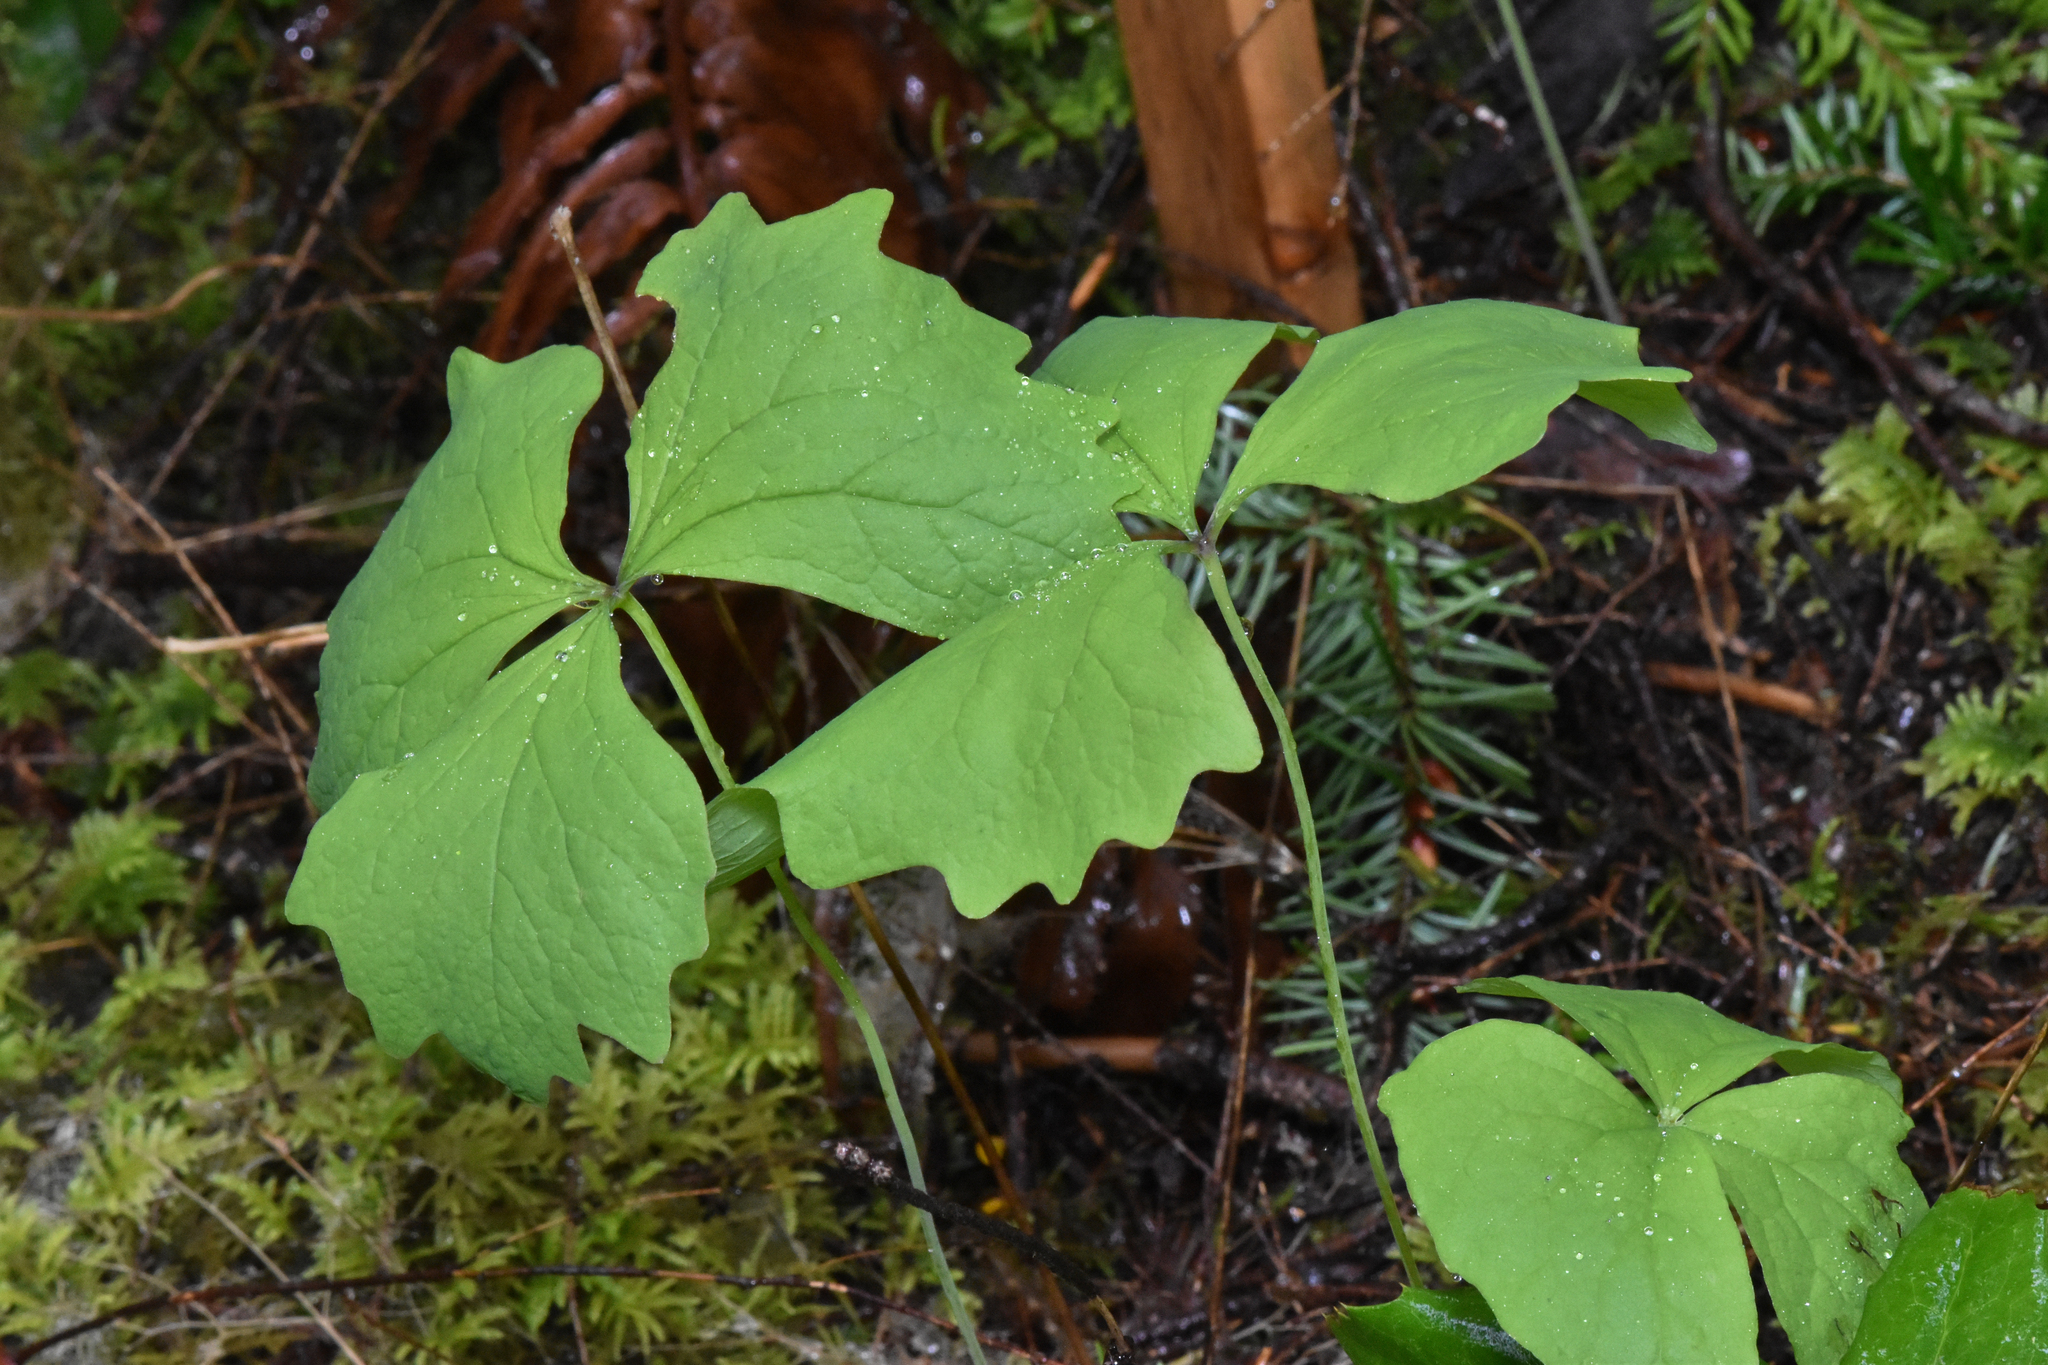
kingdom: Plantae
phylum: Tracheophyta
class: Magnoliopsida
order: Ranunculales
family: Berberidaceae
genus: Achlys
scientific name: Achlys triphylla
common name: Vanilla-leaf
